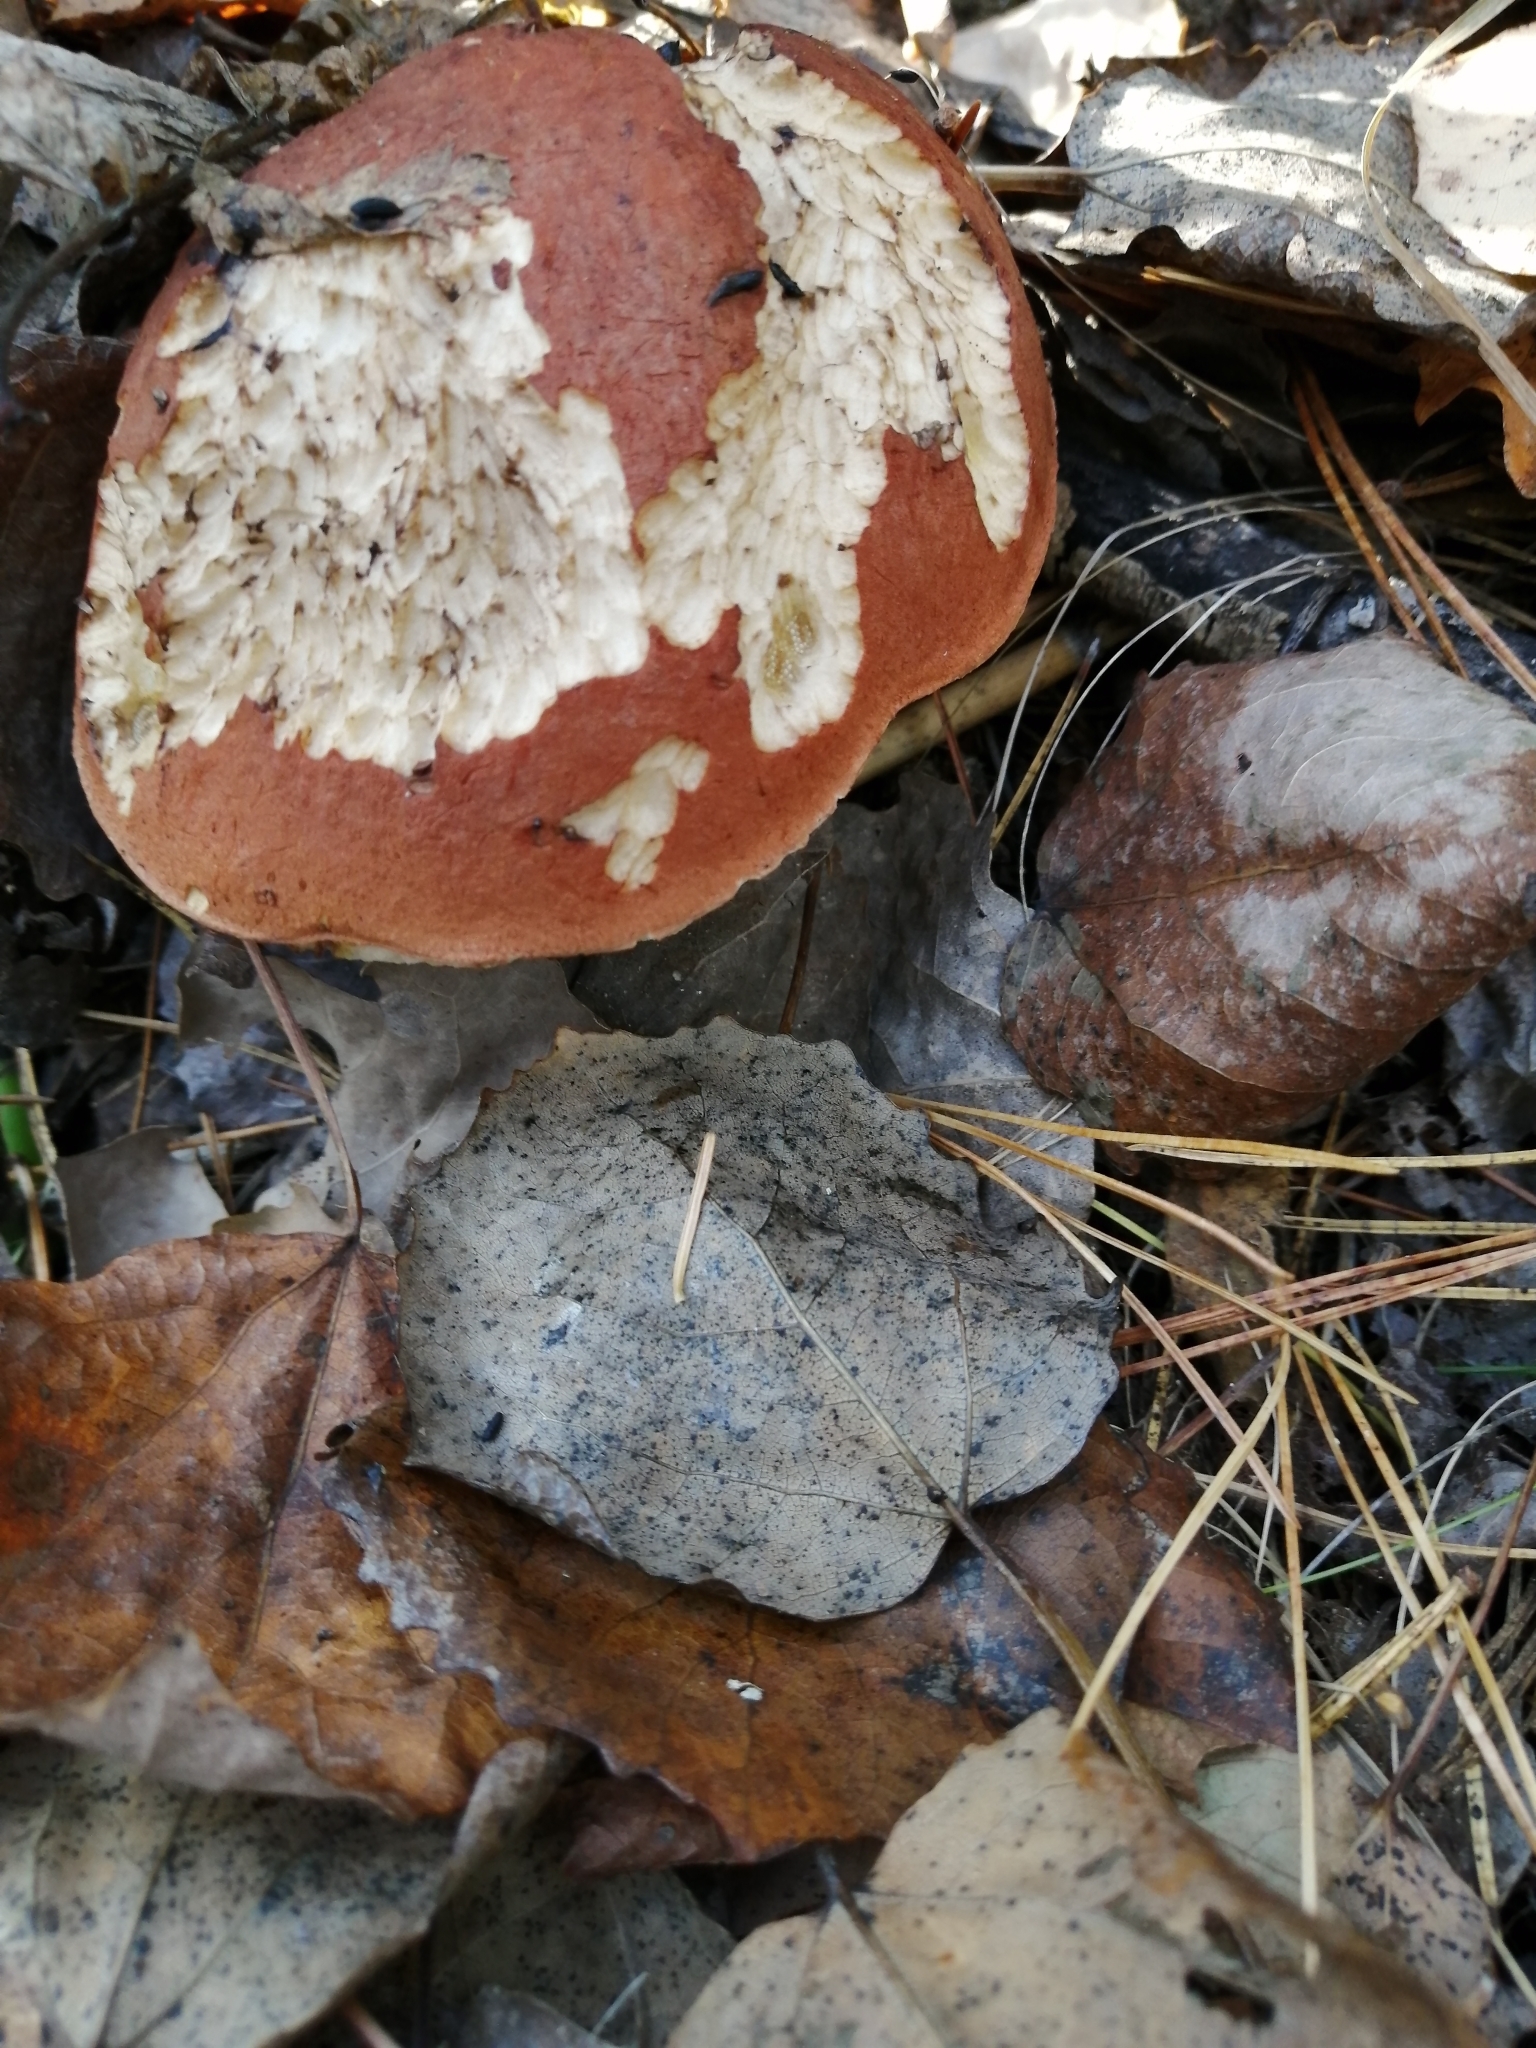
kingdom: Fungi
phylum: Basidiomycota
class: Agaricomycetes
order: Boletales
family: Boletaceae
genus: Leccinum
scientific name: Leccinum aurantiacum
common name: Orange bolete
